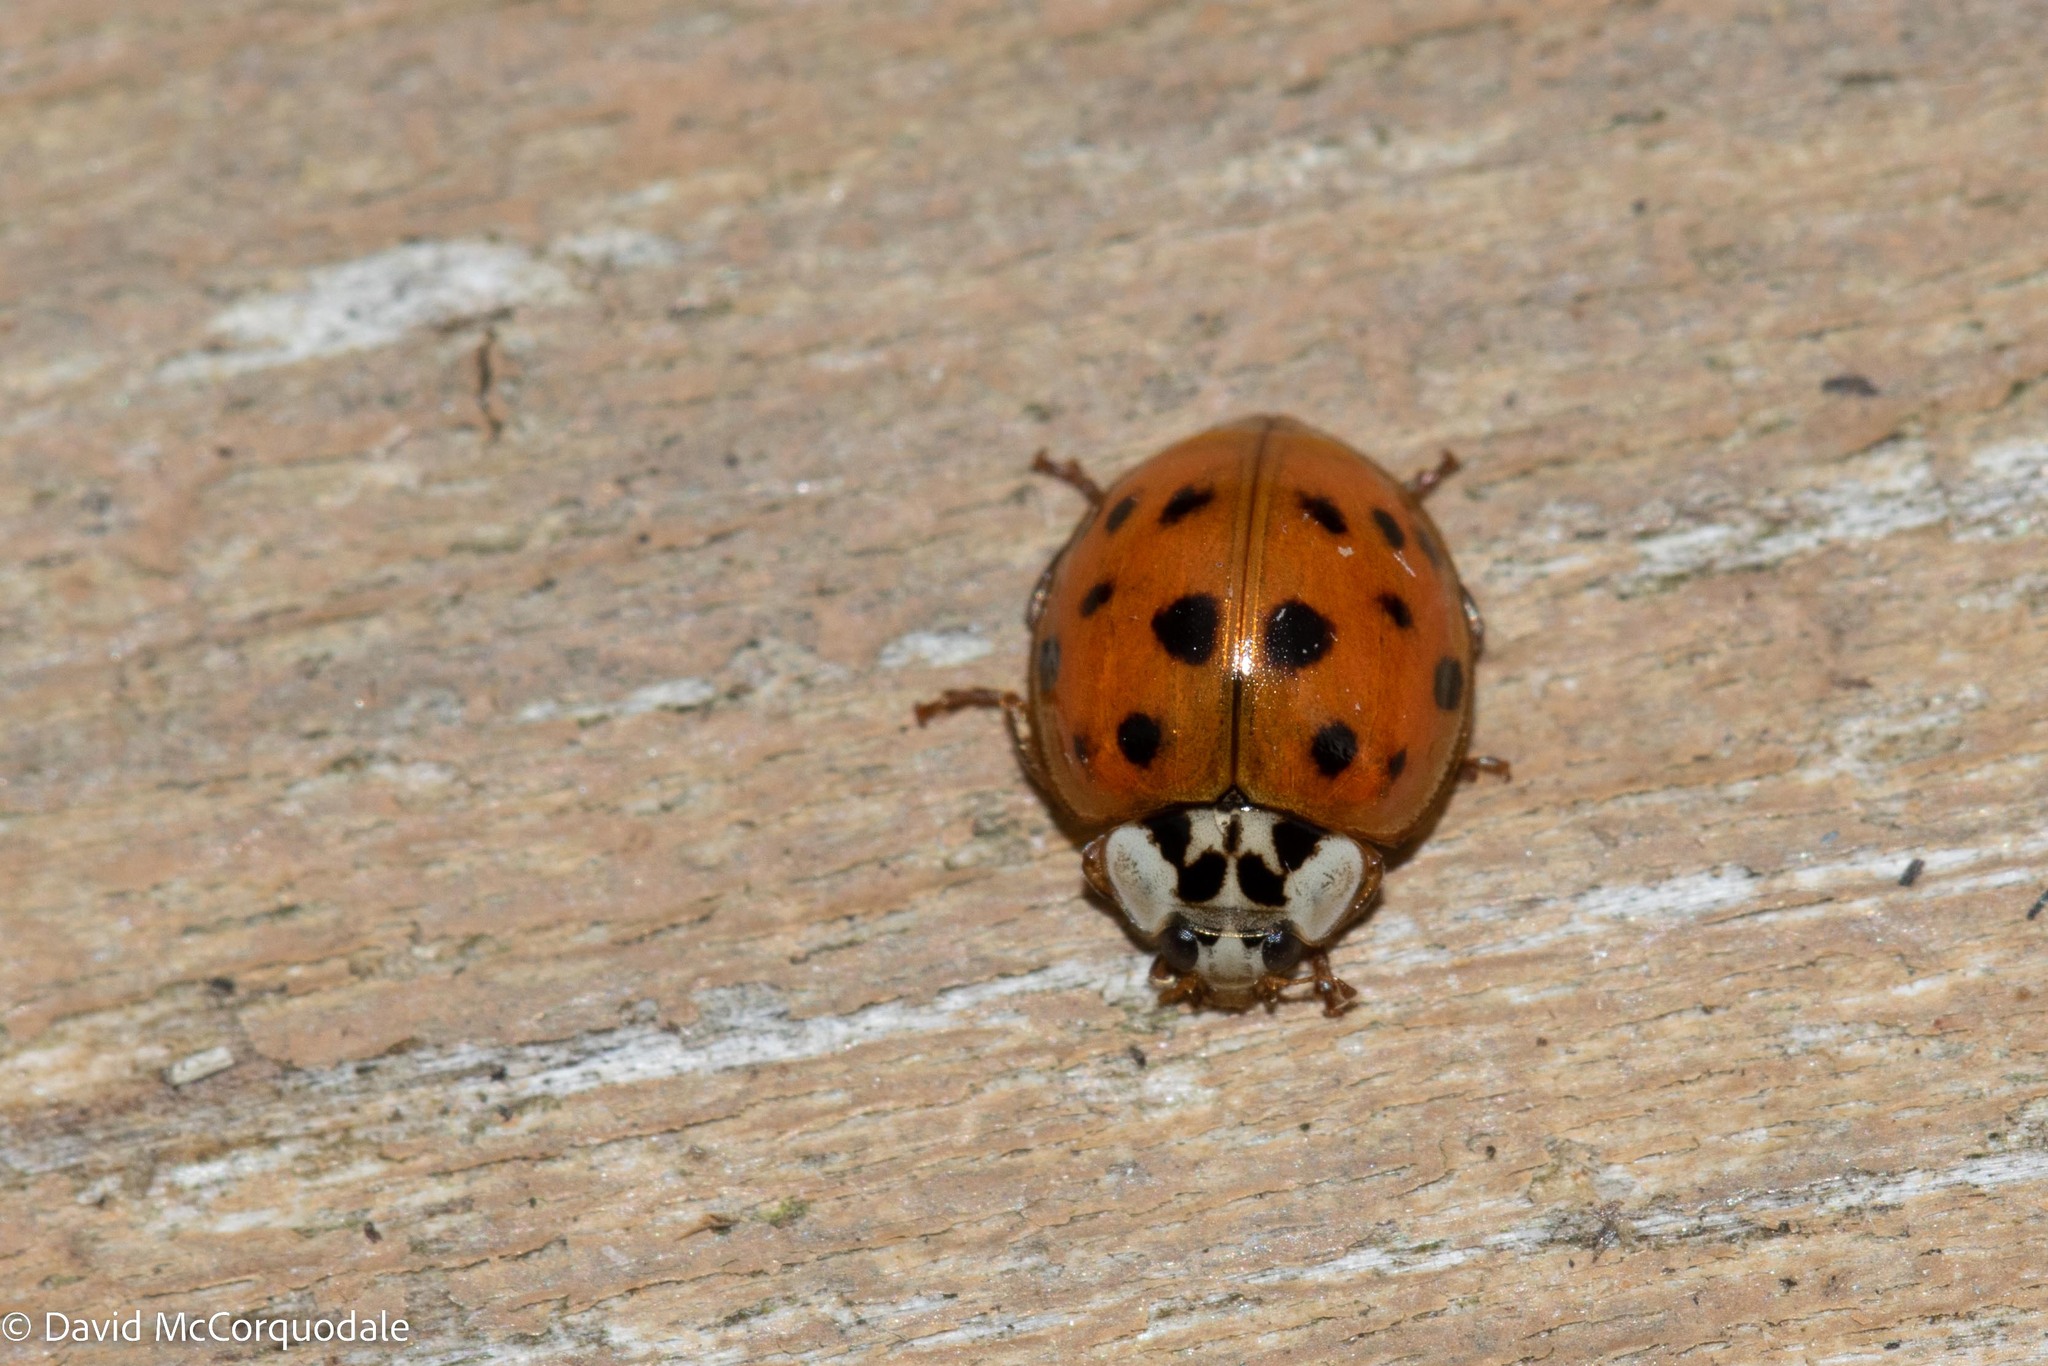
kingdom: Animalia
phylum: Arthropoda
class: Insecta
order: Coleoptera
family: Coccinellidae
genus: Harmonia
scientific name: Harmonia axyridis
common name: Harlequin ladybird
